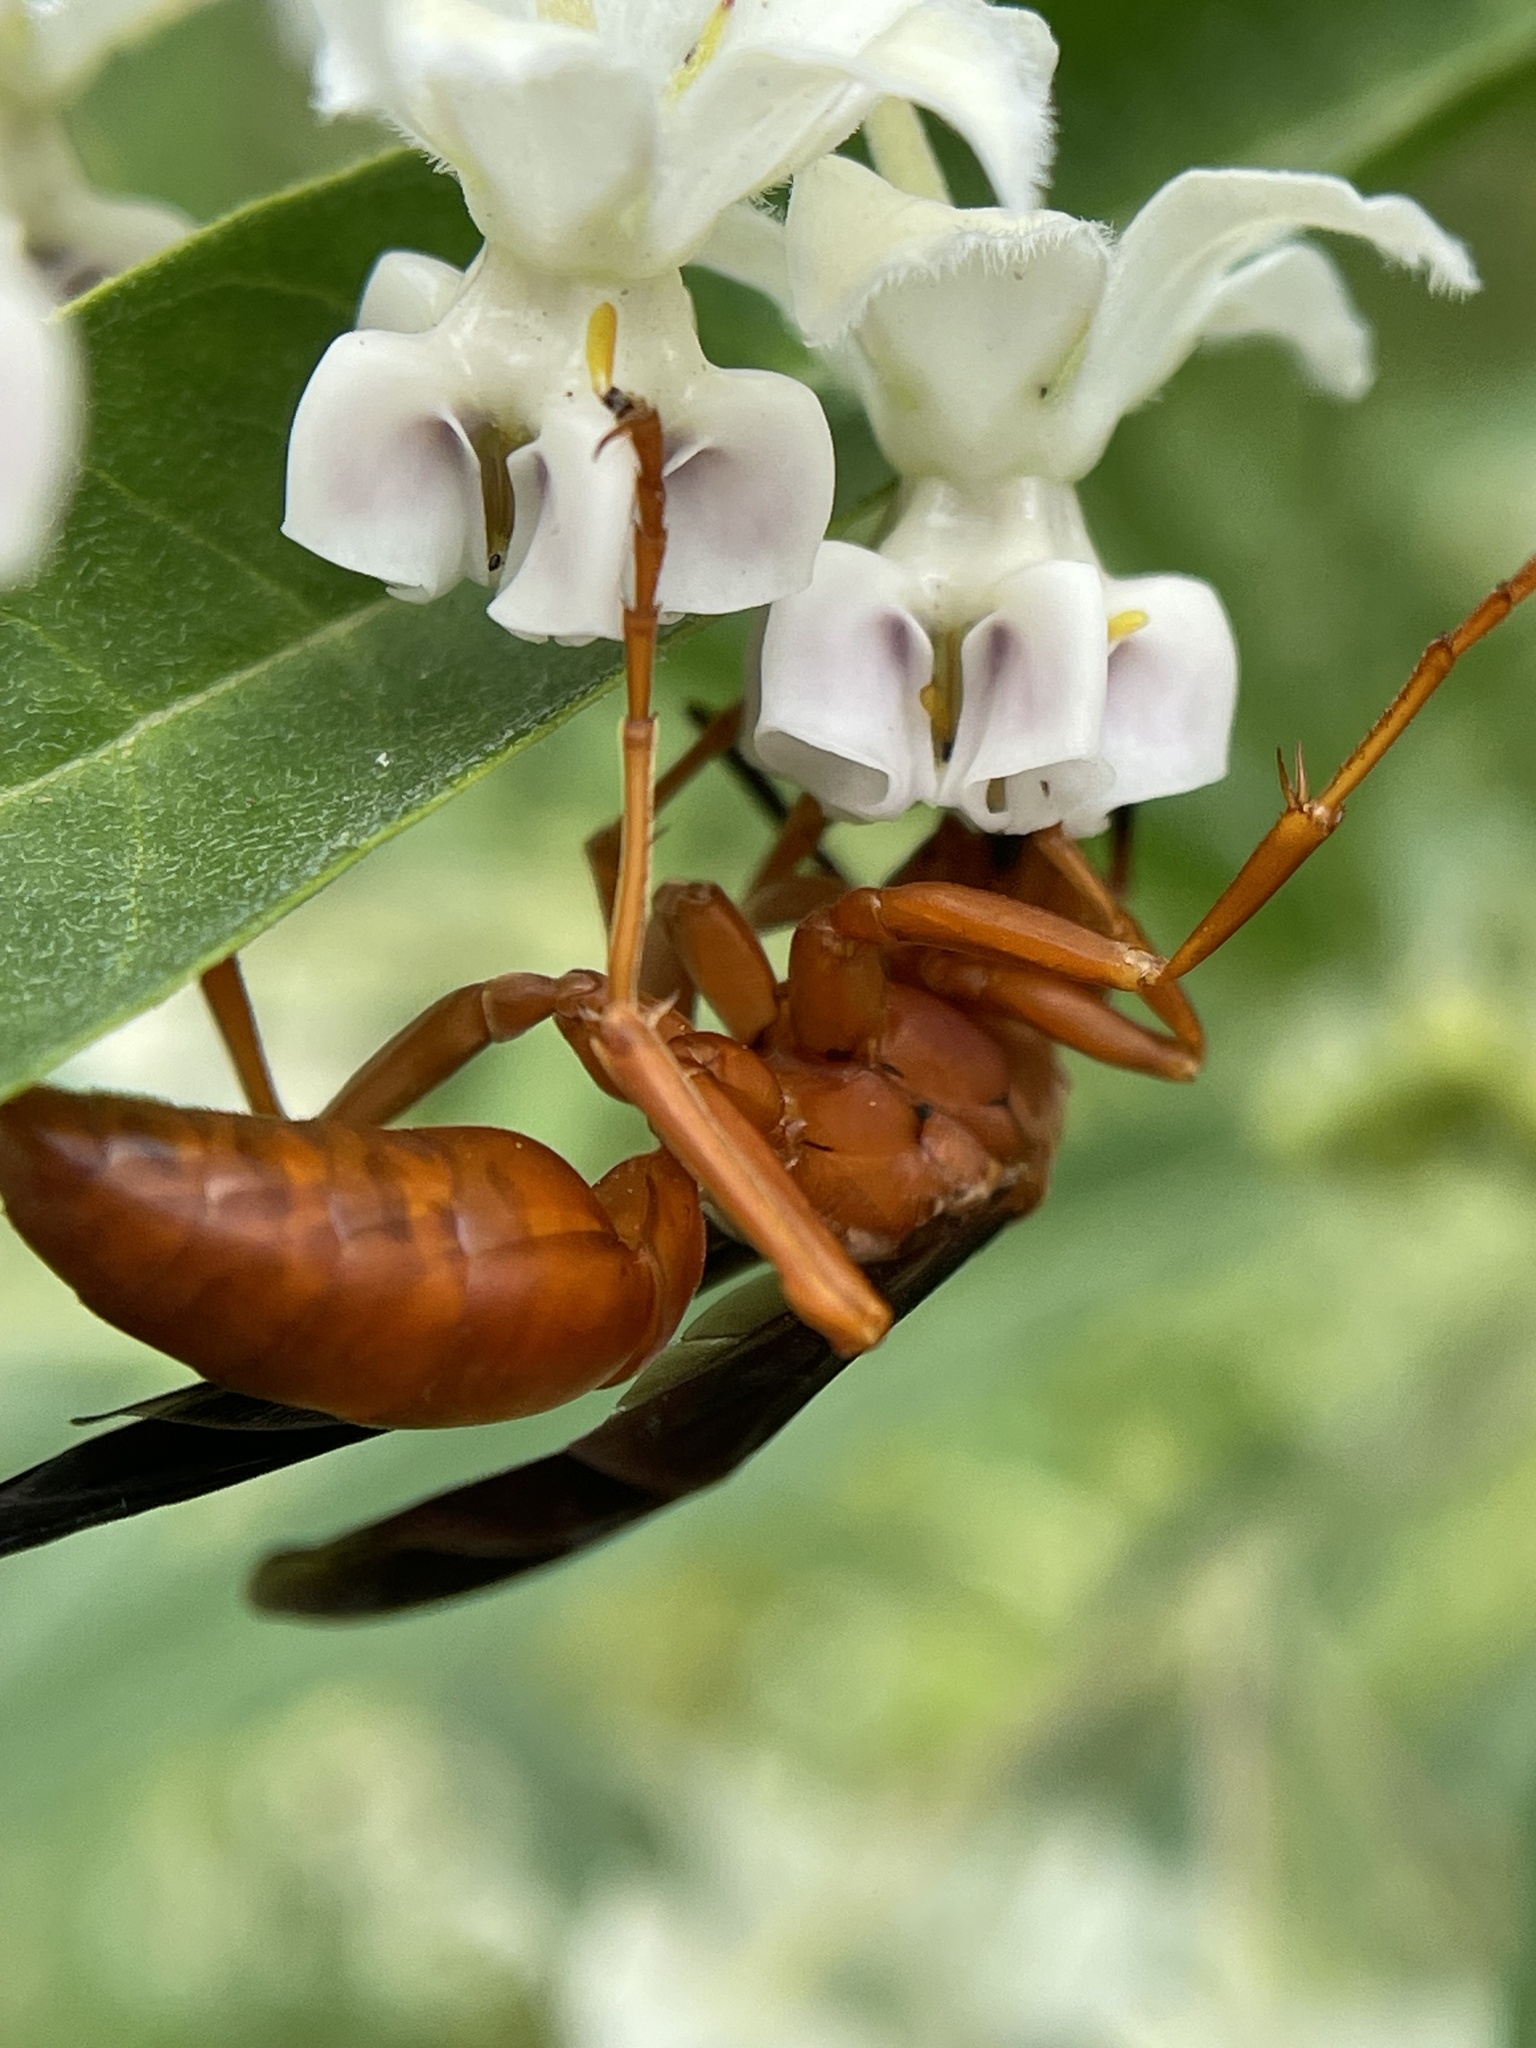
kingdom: Animalia
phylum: Arthropoda
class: Insecta
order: Hymenoptera
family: Vespidae
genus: Fuscopolistes
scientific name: Fuscopolistes
